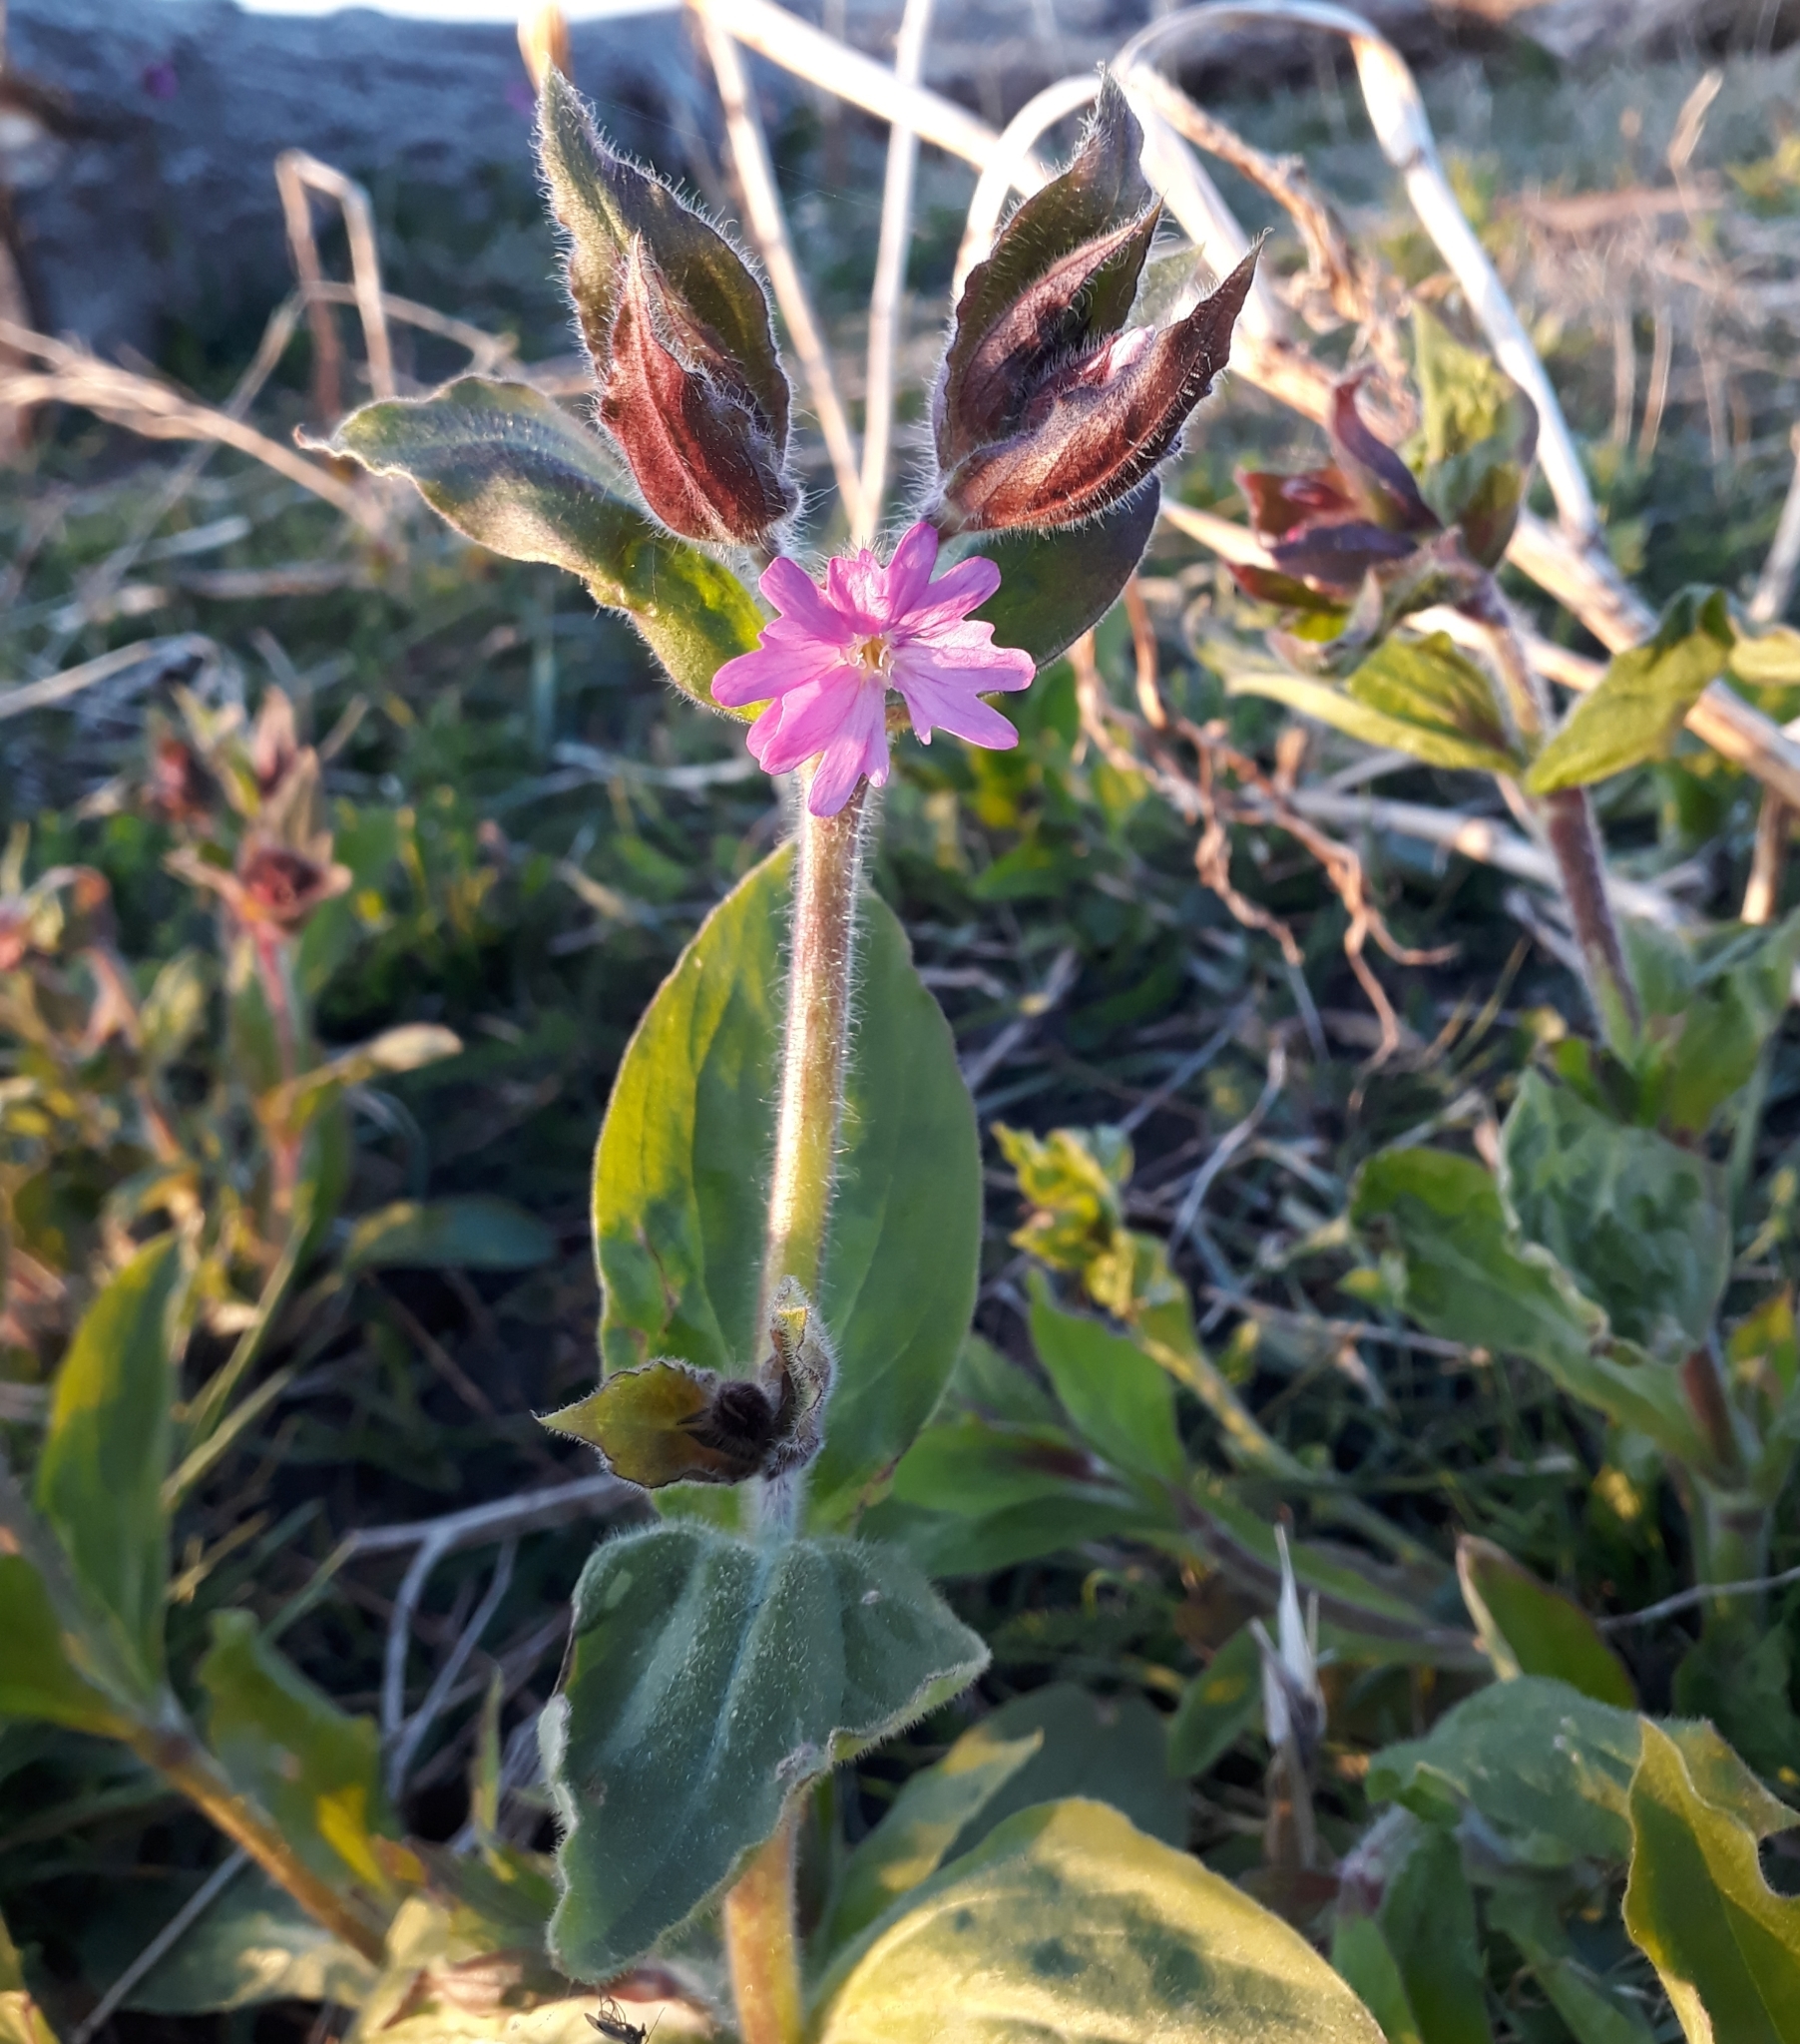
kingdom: Plantae
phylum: Tracheophyta
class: Magnoliopsida
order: Caryophyllales
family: Caryophyllaceae
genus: Silene
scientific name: Silene dioica
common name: Red campion
